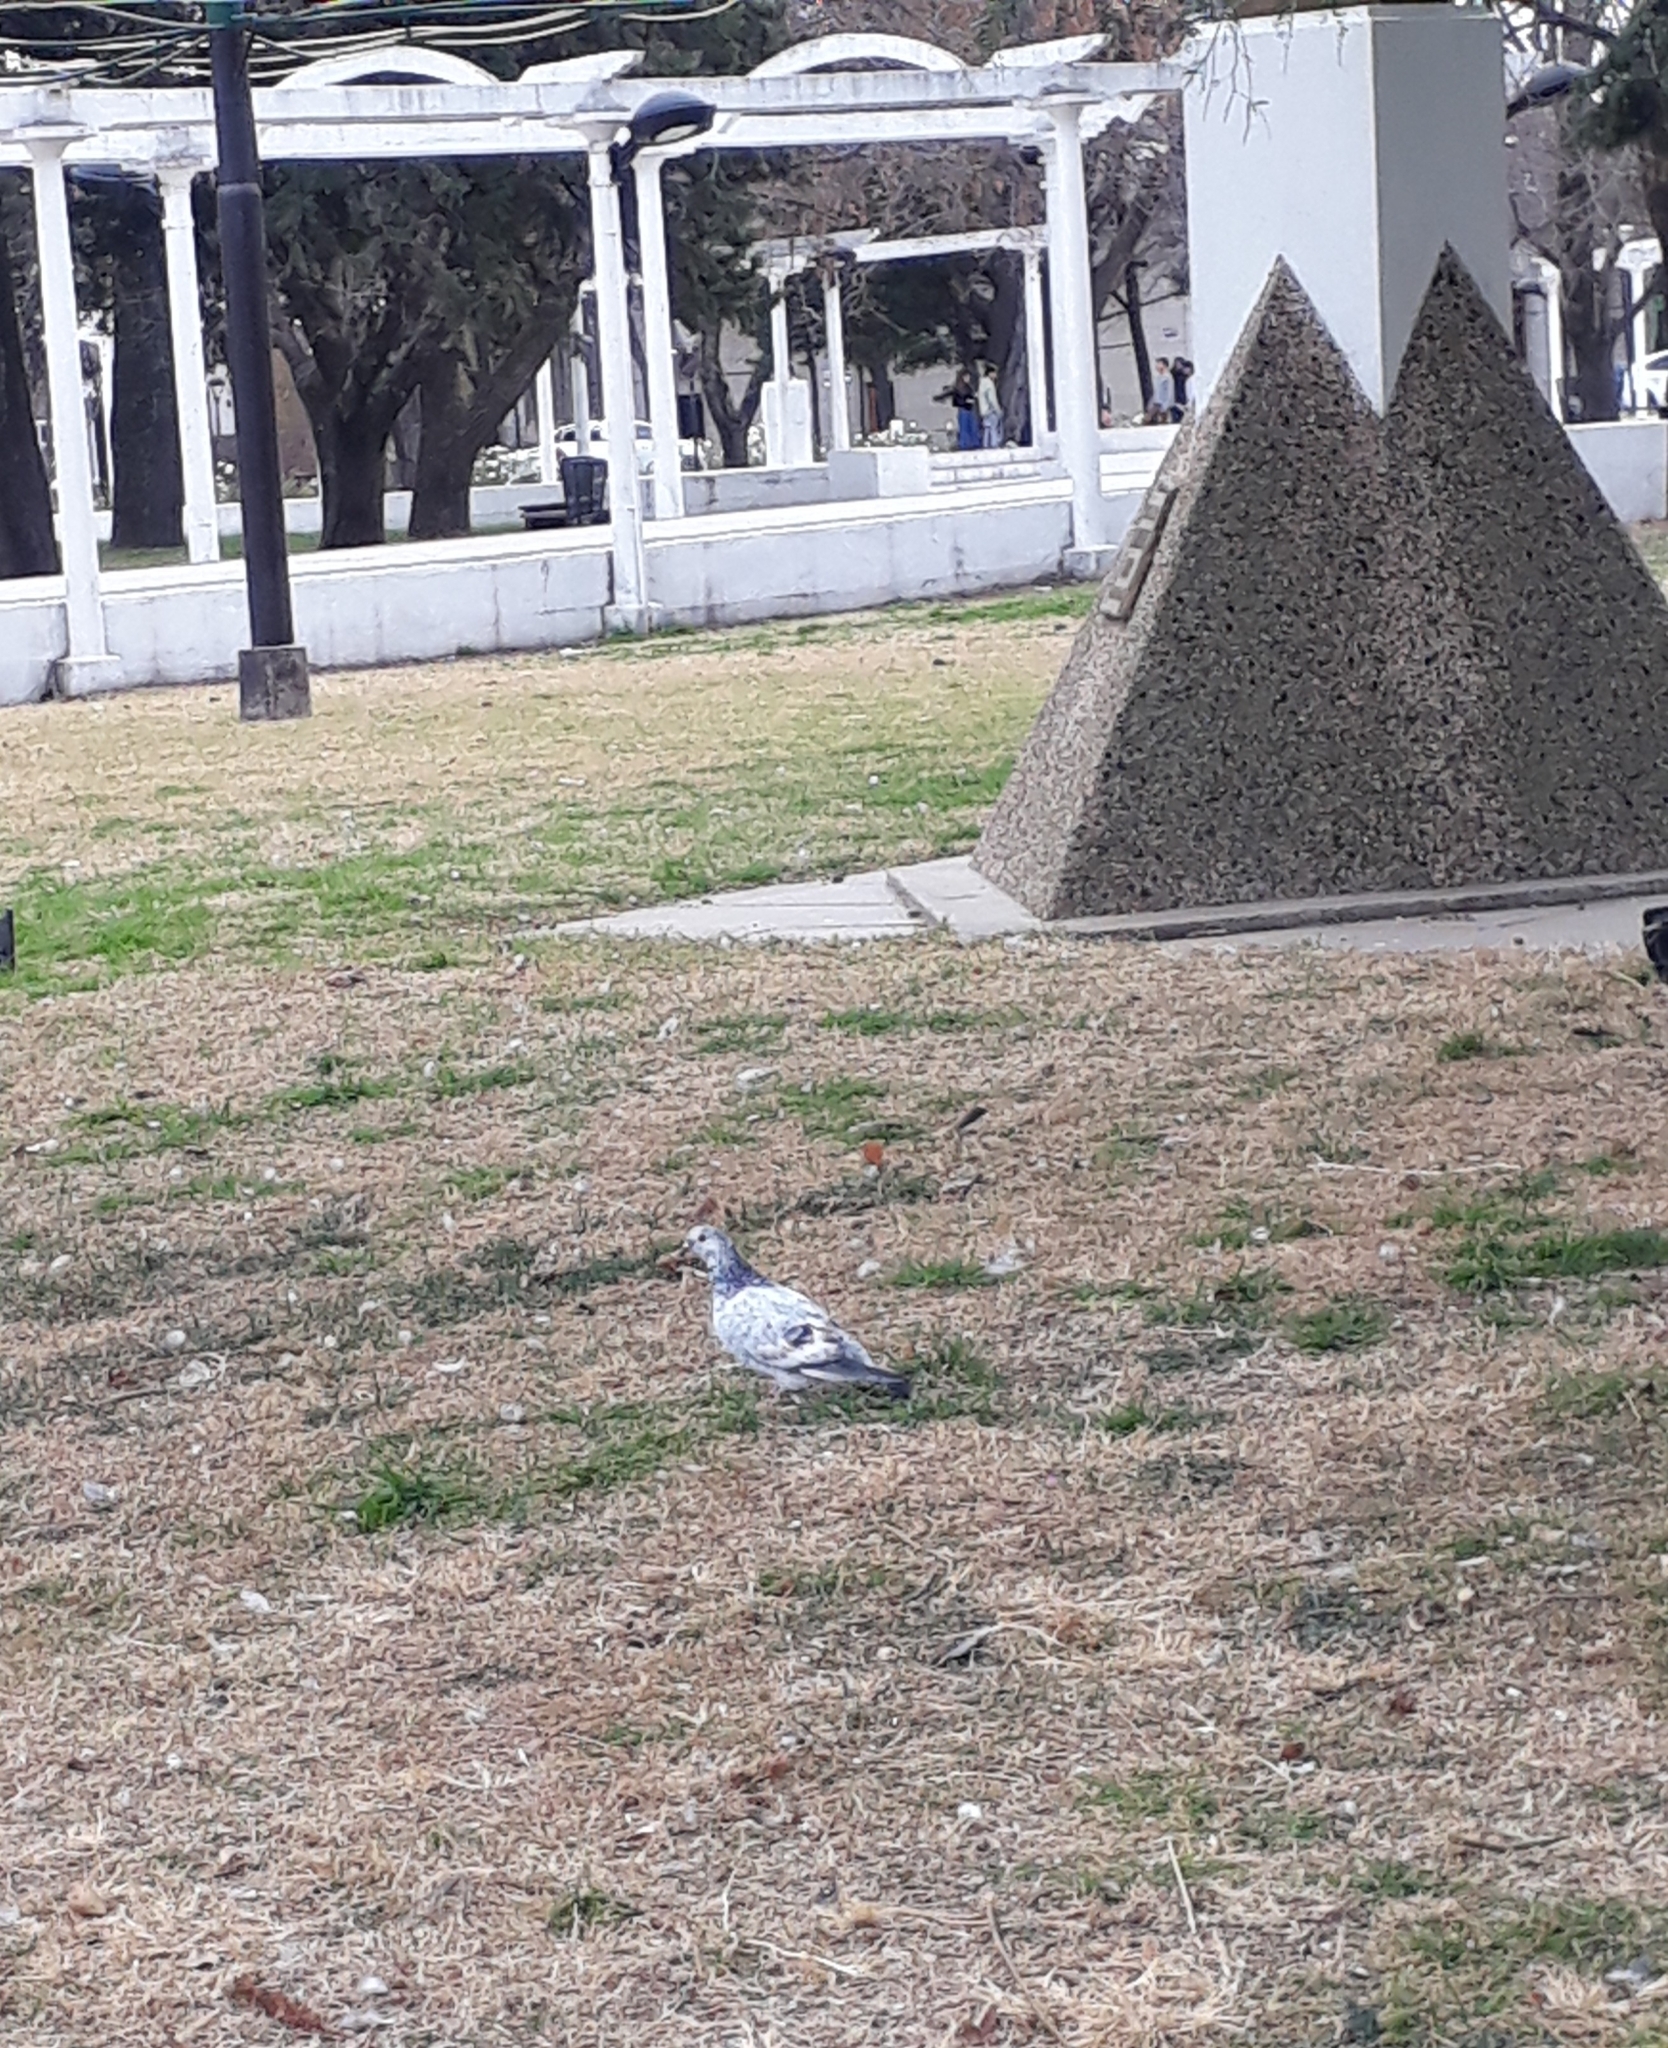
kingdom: Animalia
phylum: Chordata
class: Aves
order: Columbiformes
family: Columbidae
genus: Columba
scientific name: Columba livia
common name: Rock pigeon
